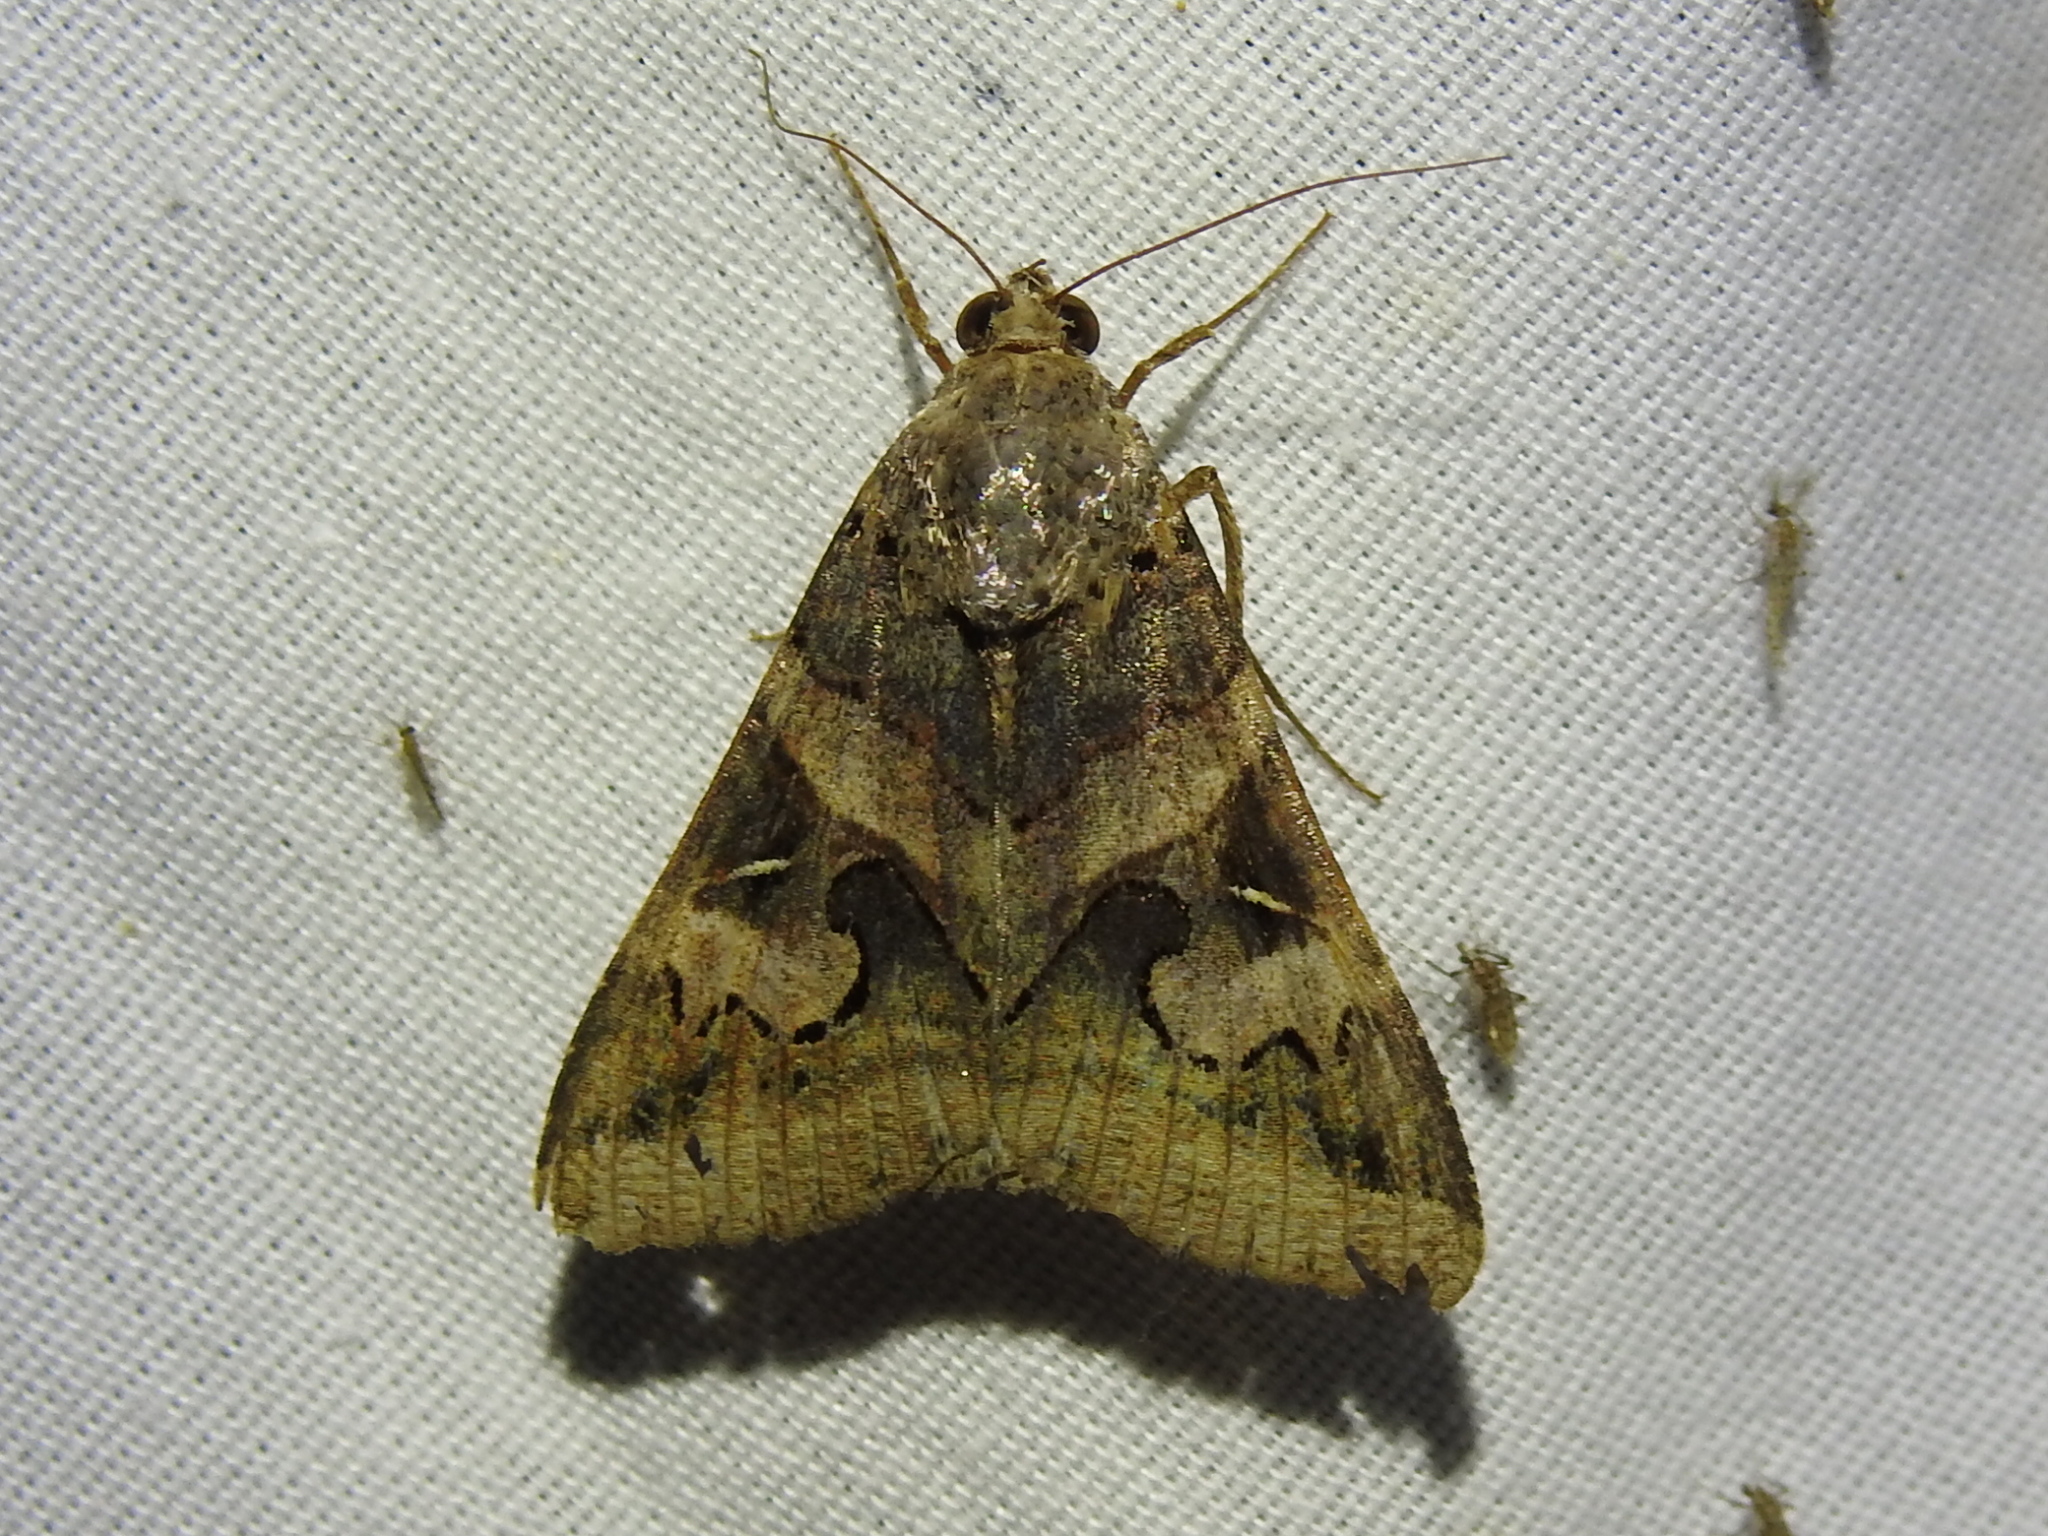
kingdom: Animalia
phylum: Arthropoda
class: Insecta
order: Lepidoptera
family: Erebidae
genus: Melipotis
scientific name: Melipotis indomita
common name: Moth
